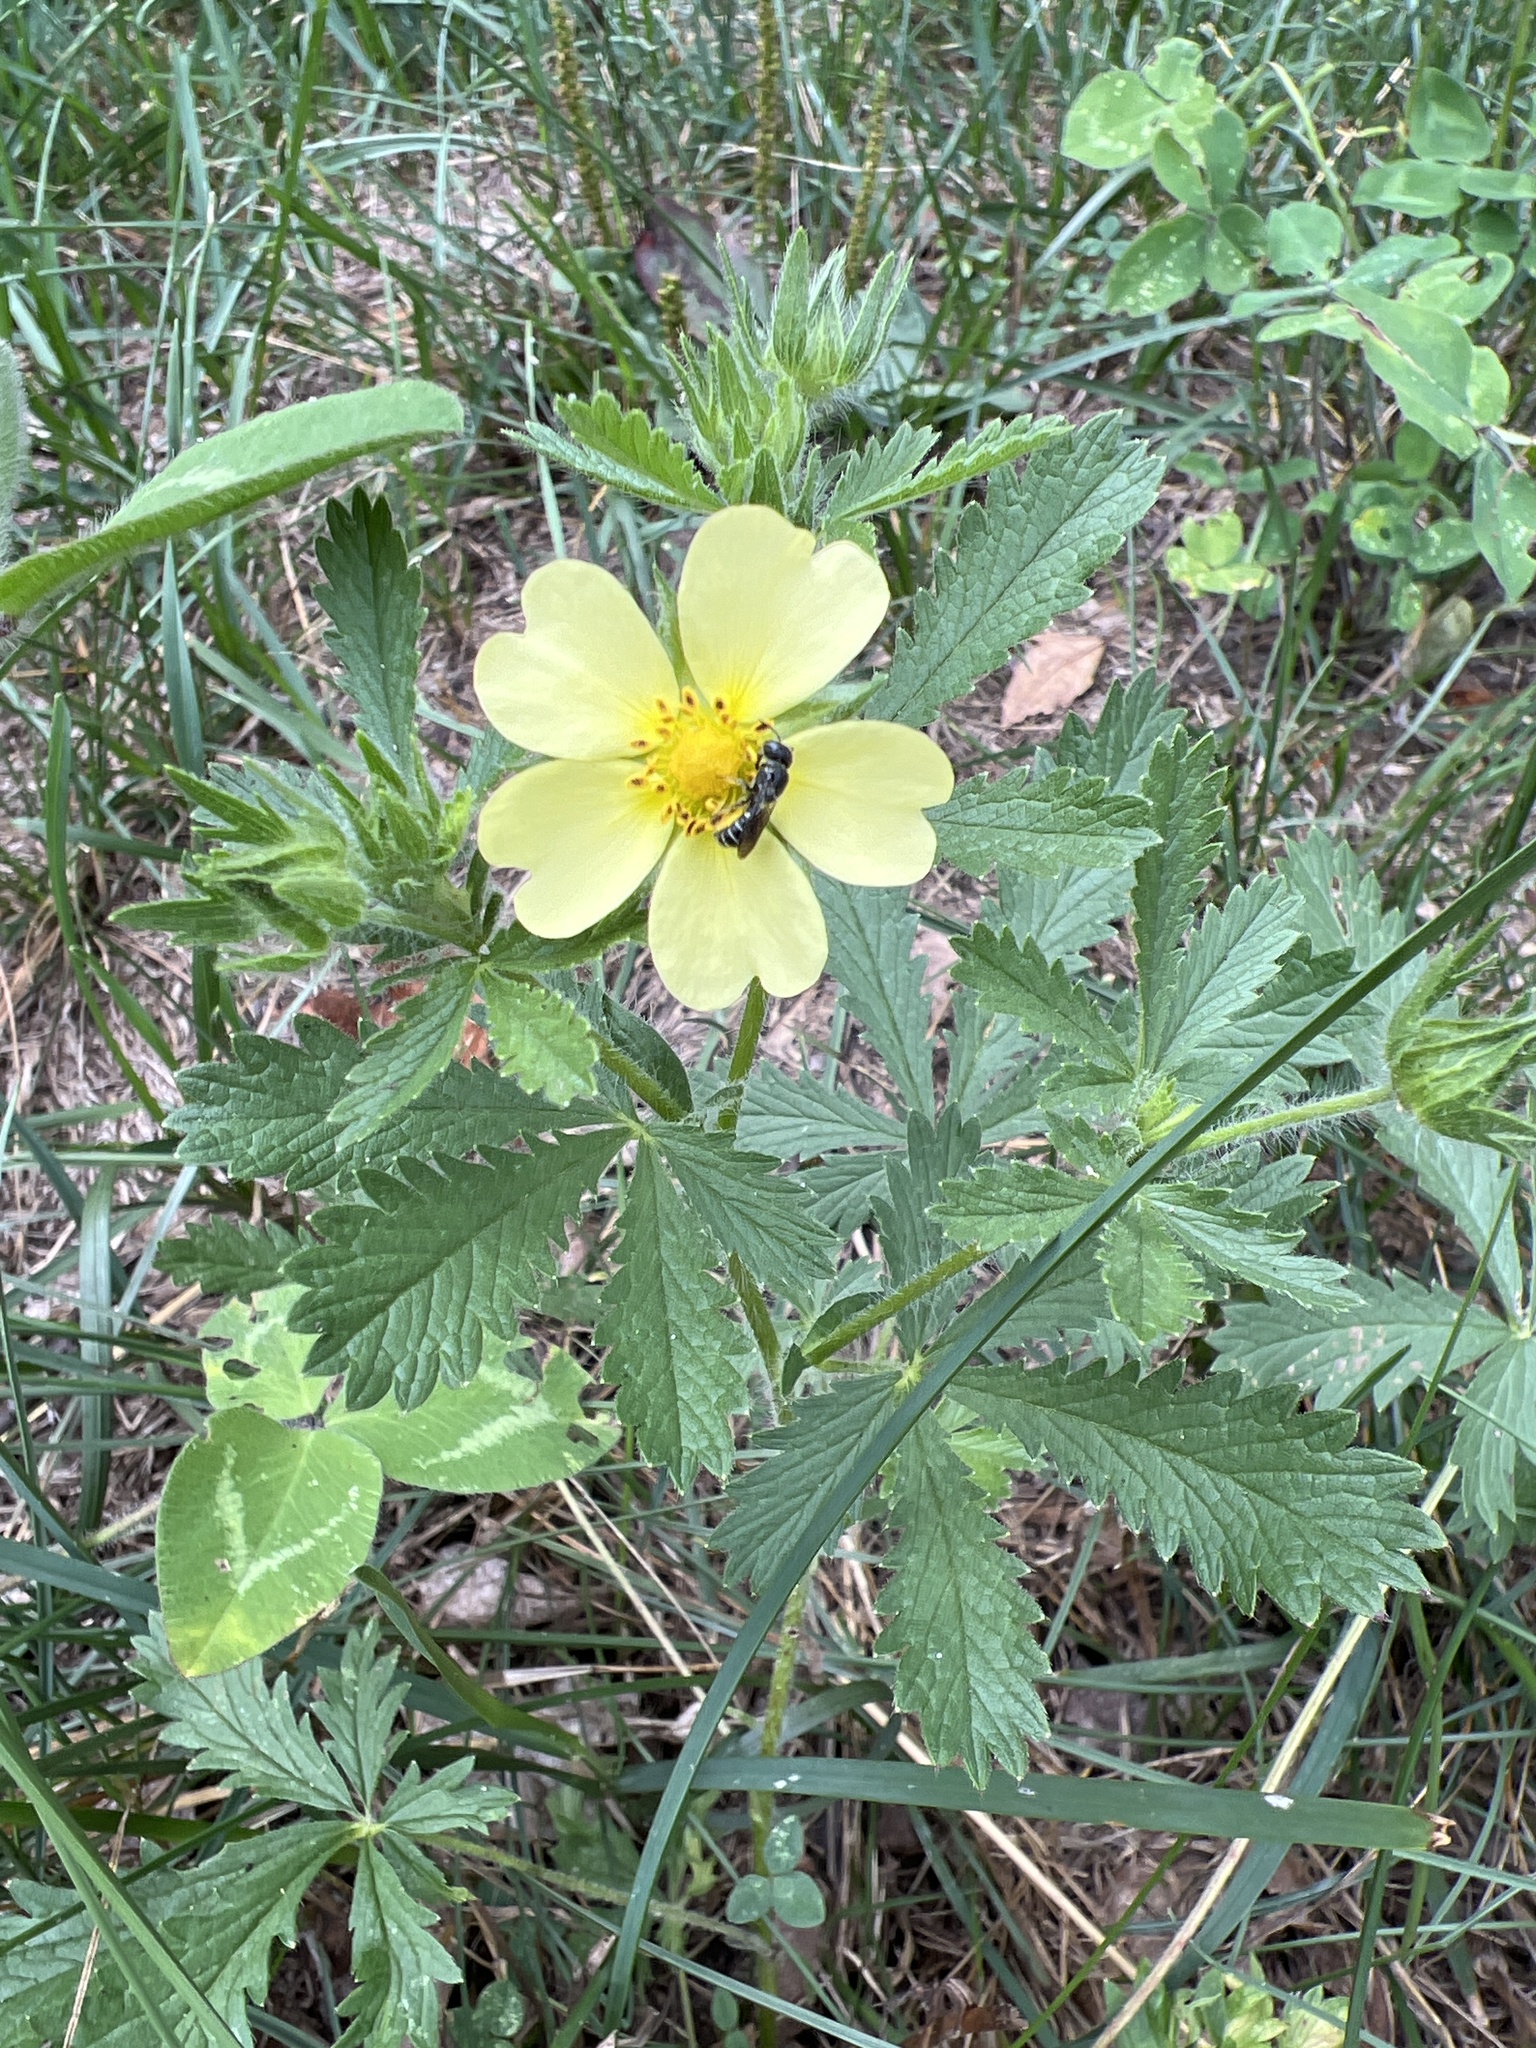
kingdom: Plantae
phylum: Tracheophyta
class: Magnoliopsida
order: Rosales
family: Rosaceae
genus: Potentilla
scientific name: Potentilla recta
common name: Sulphur cinquefoil
